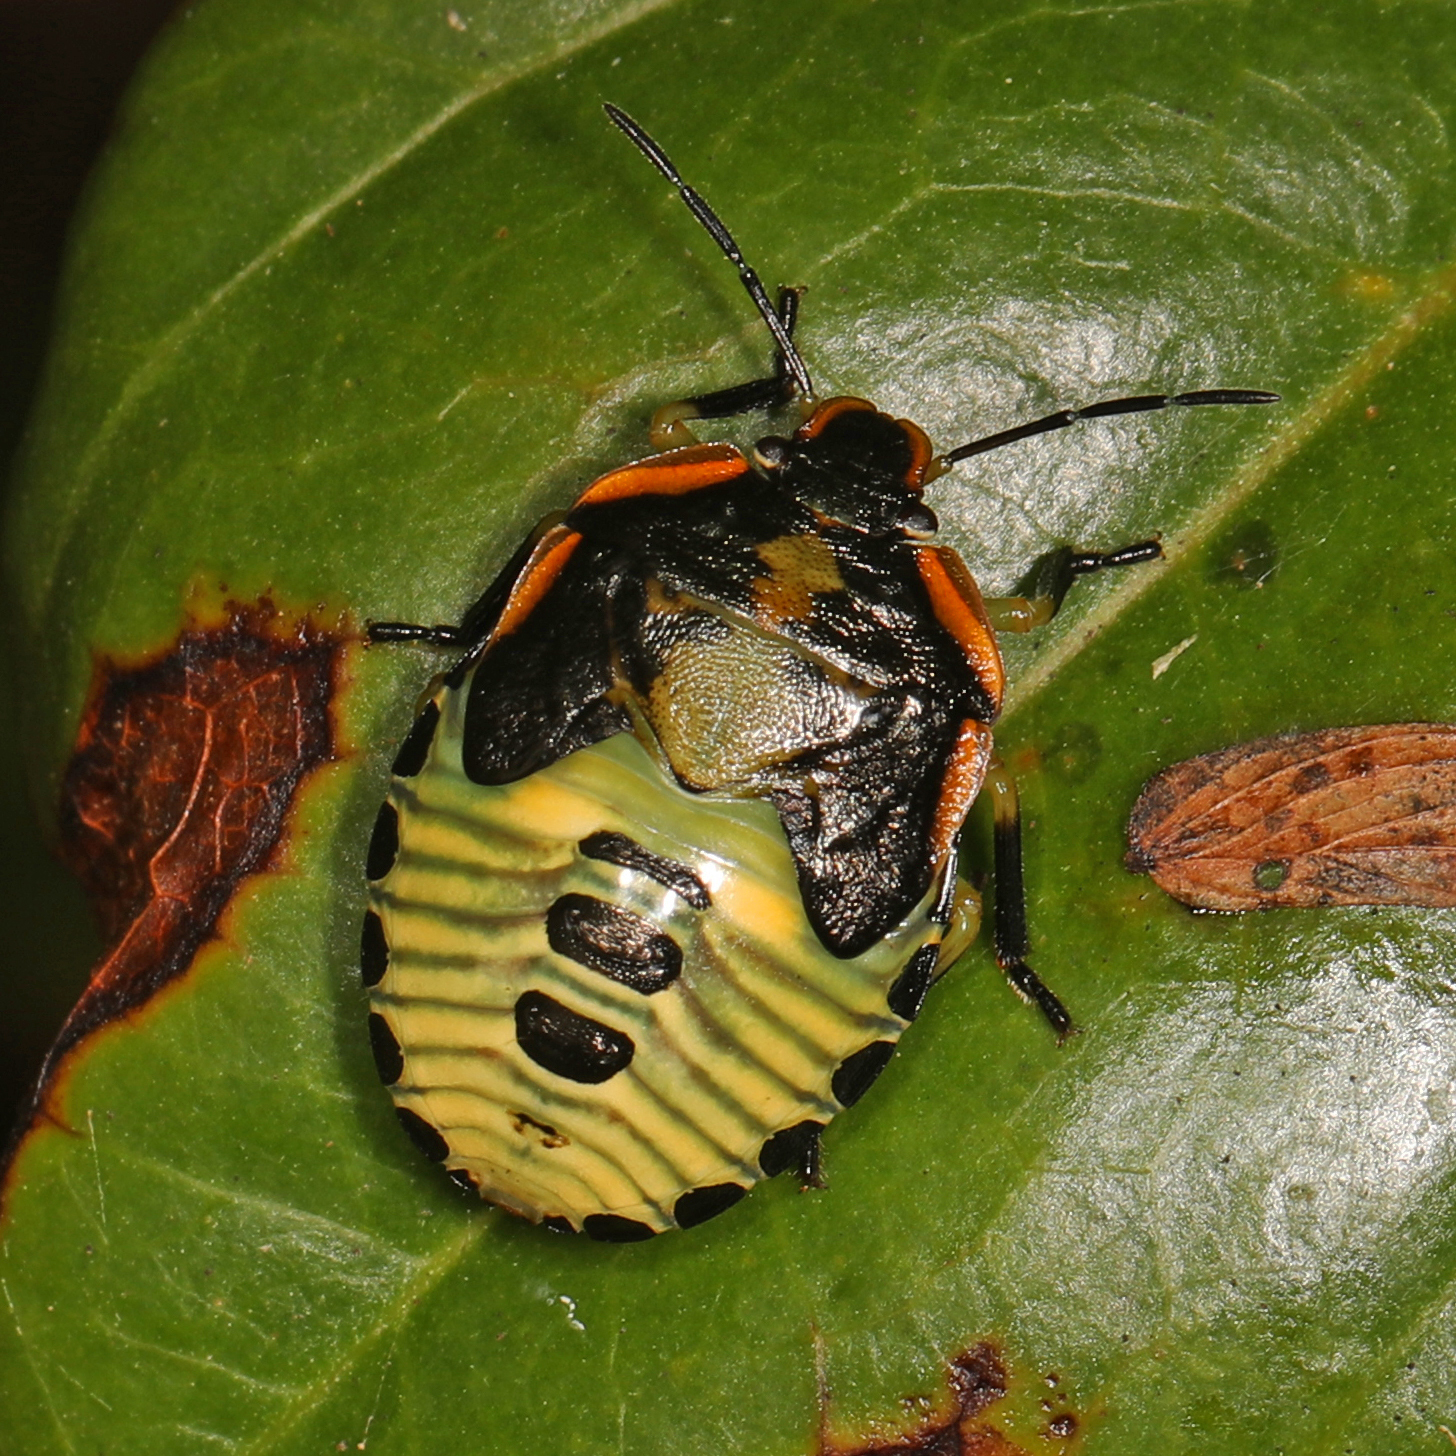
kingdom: Animalia
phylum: Arthropoda
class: Insecta
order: Hemiptera
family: Pentatomidae
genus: Chinavia
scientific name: Chinavia hilaris
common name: Green stink bug
